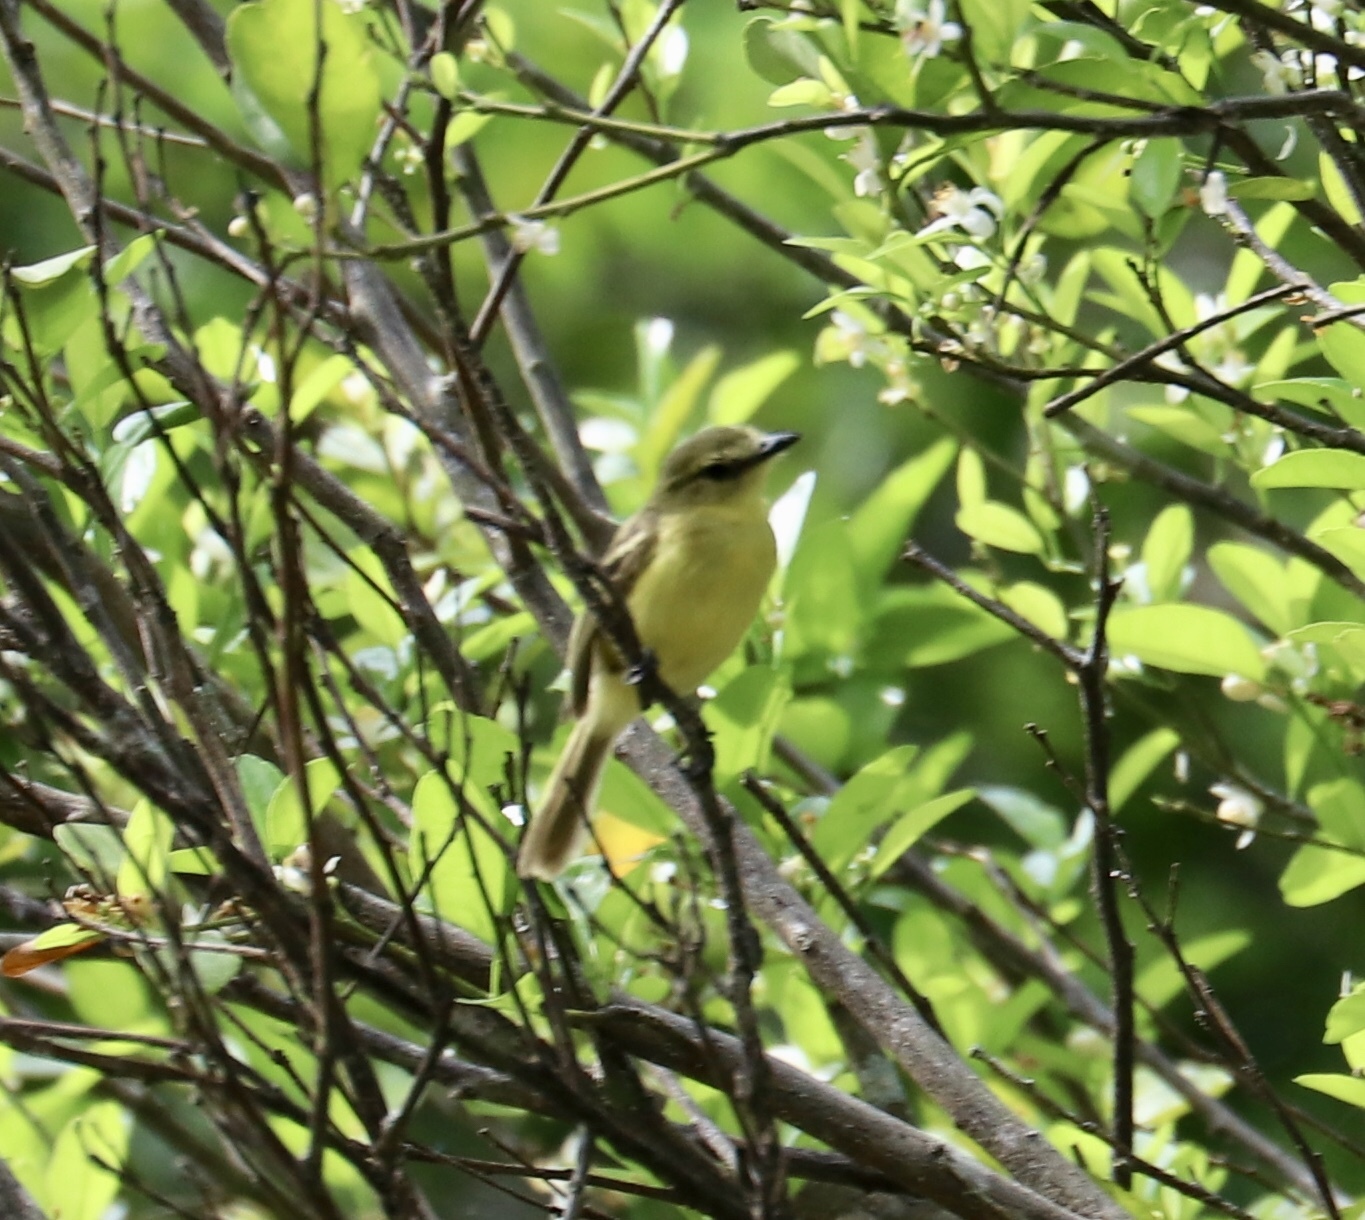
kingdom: Animalia
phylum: Chordata
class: Aves
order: Passeriformes
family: Tyrannidae
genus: Capsiempis
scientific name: Capsiempis flaveola
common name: Yellow tyrannulet
